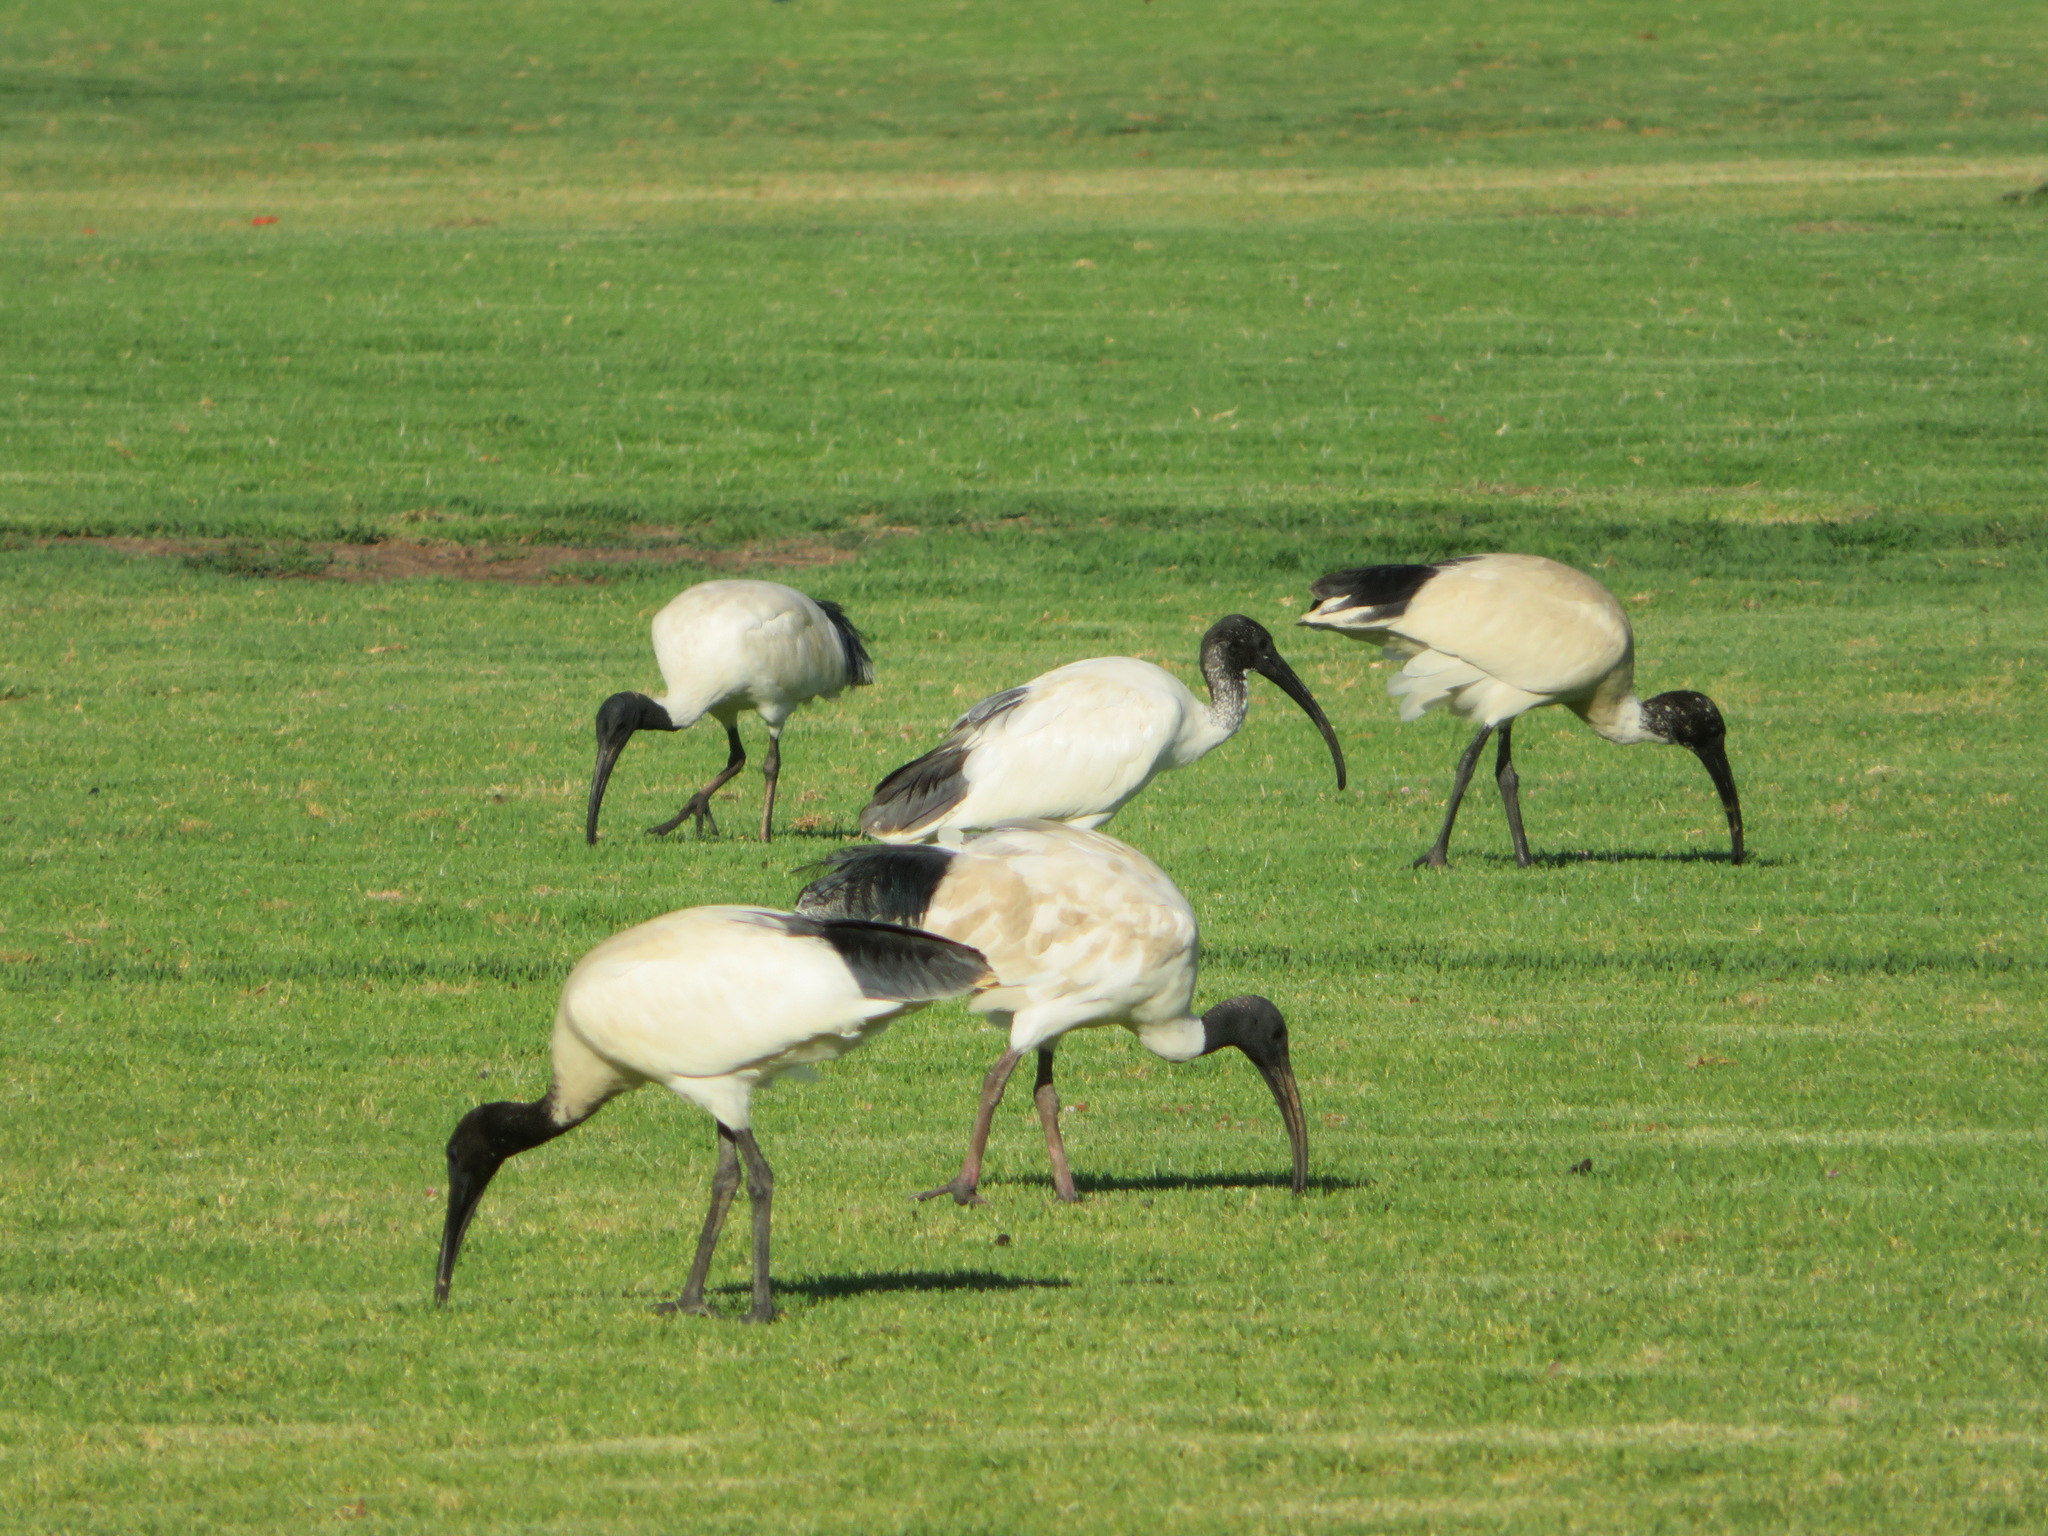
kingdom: Animalia
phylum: Chordata
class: Aves
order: Pelecaniformes
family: Threskiornithidae
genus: Threskiornis
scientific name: Threskiornis molucca
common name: Australian white ibis
